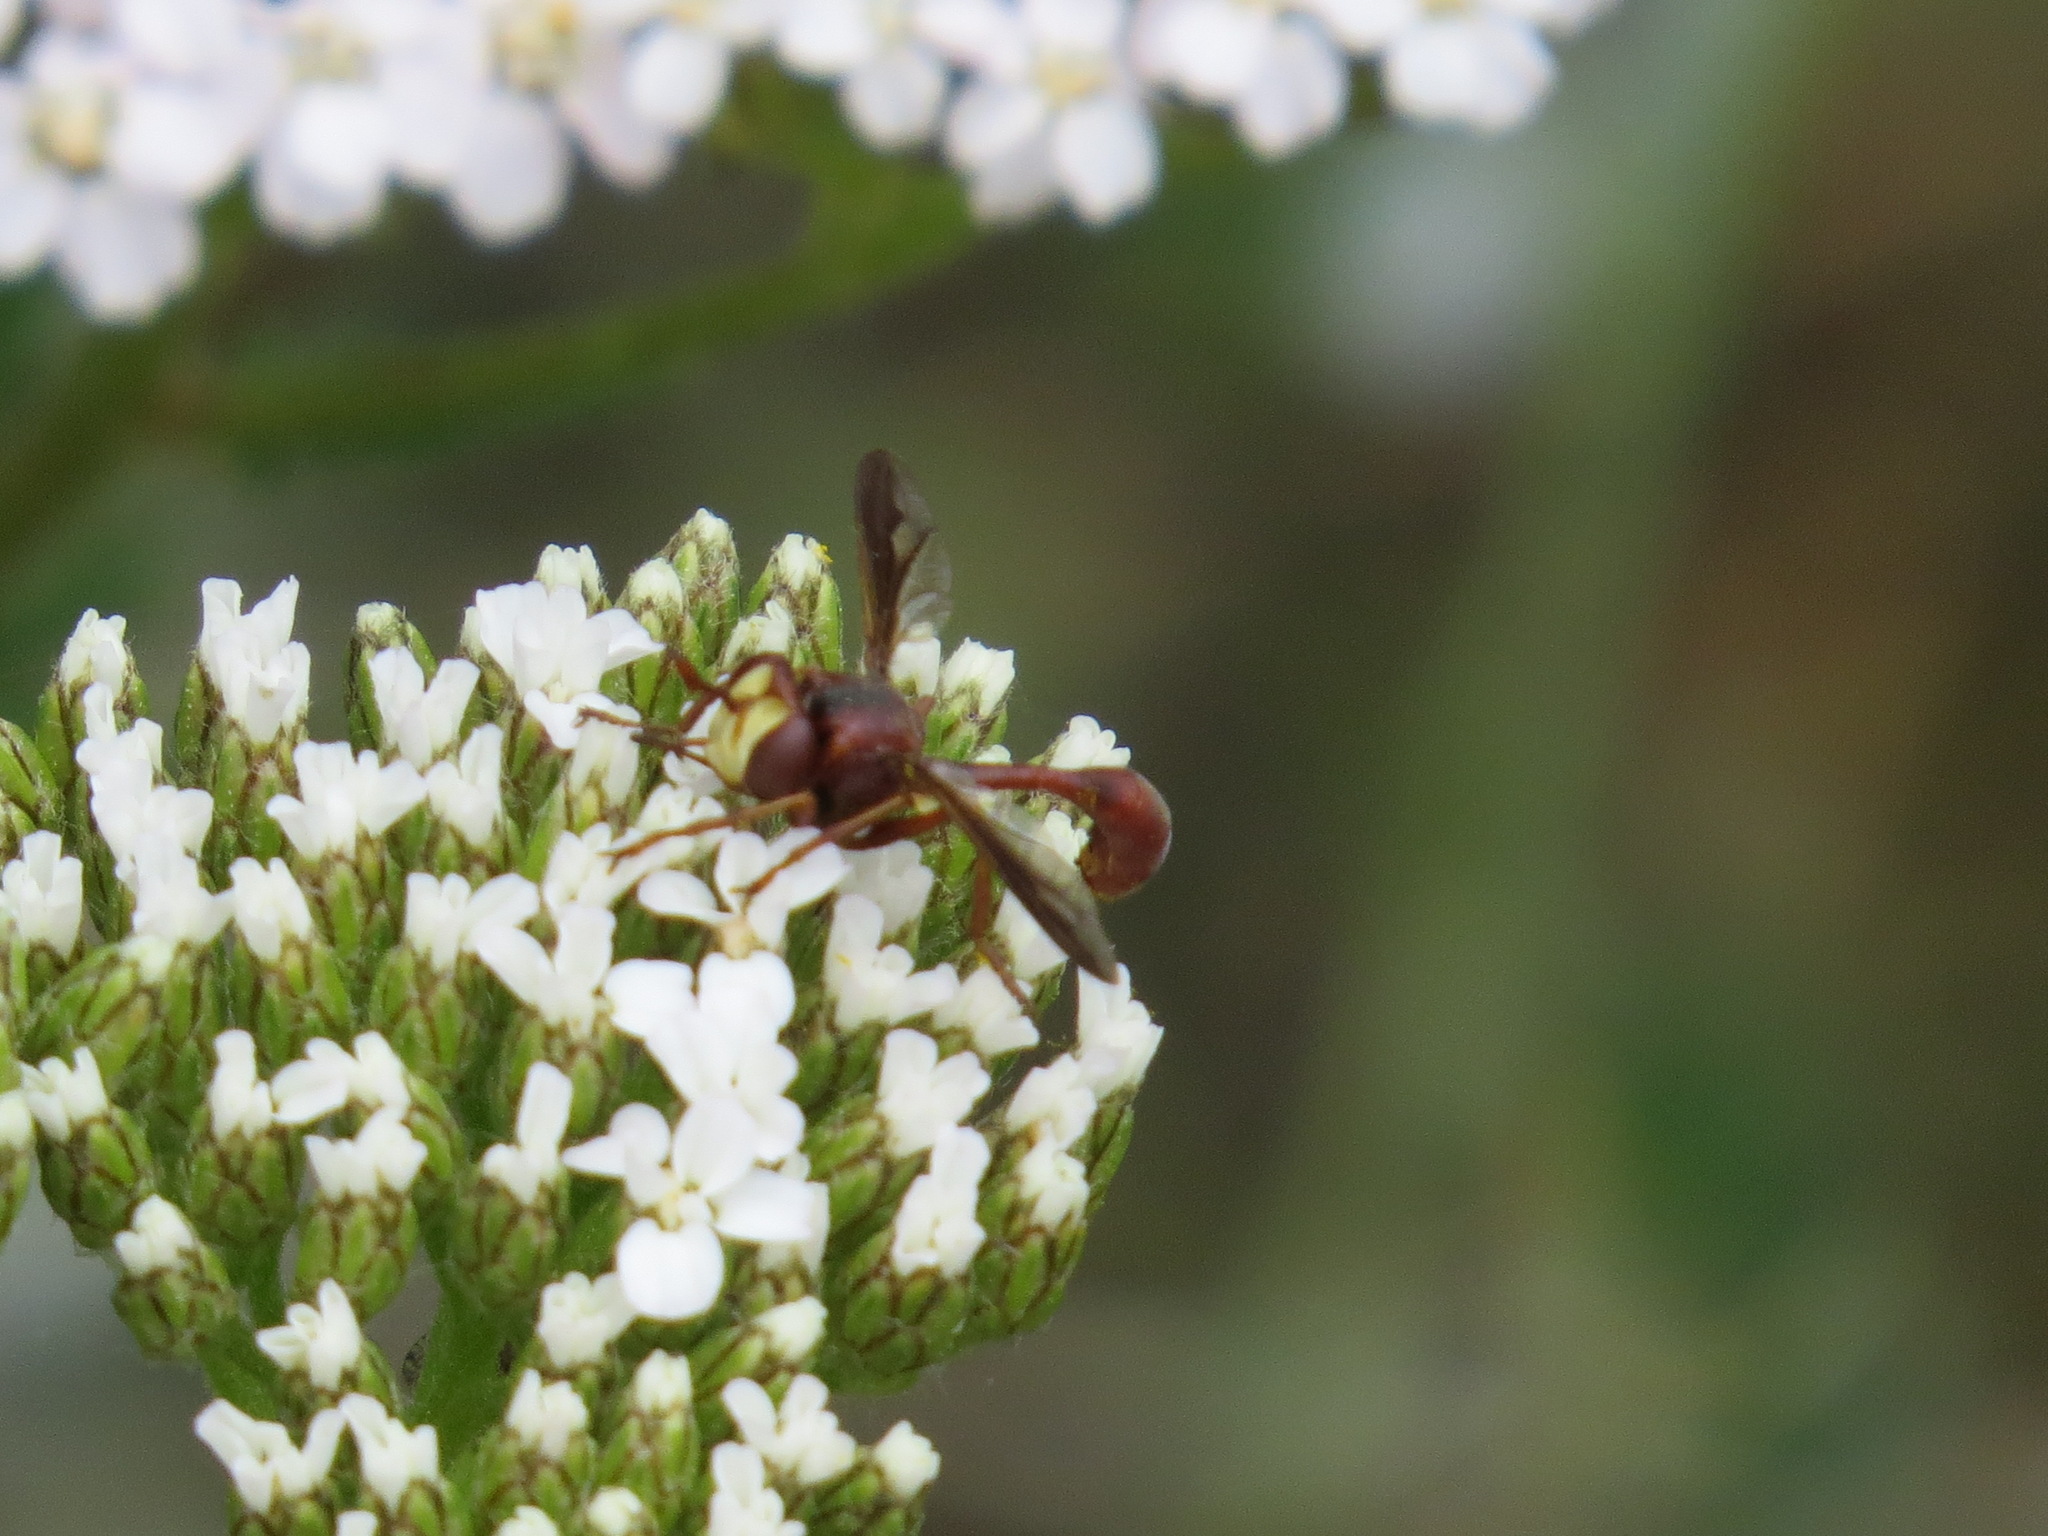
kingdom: Animalia
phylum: Arthropoda
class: Insecta
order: Diptera
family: Conopidae
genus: Physocephala
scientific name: Physocephala burgessi
